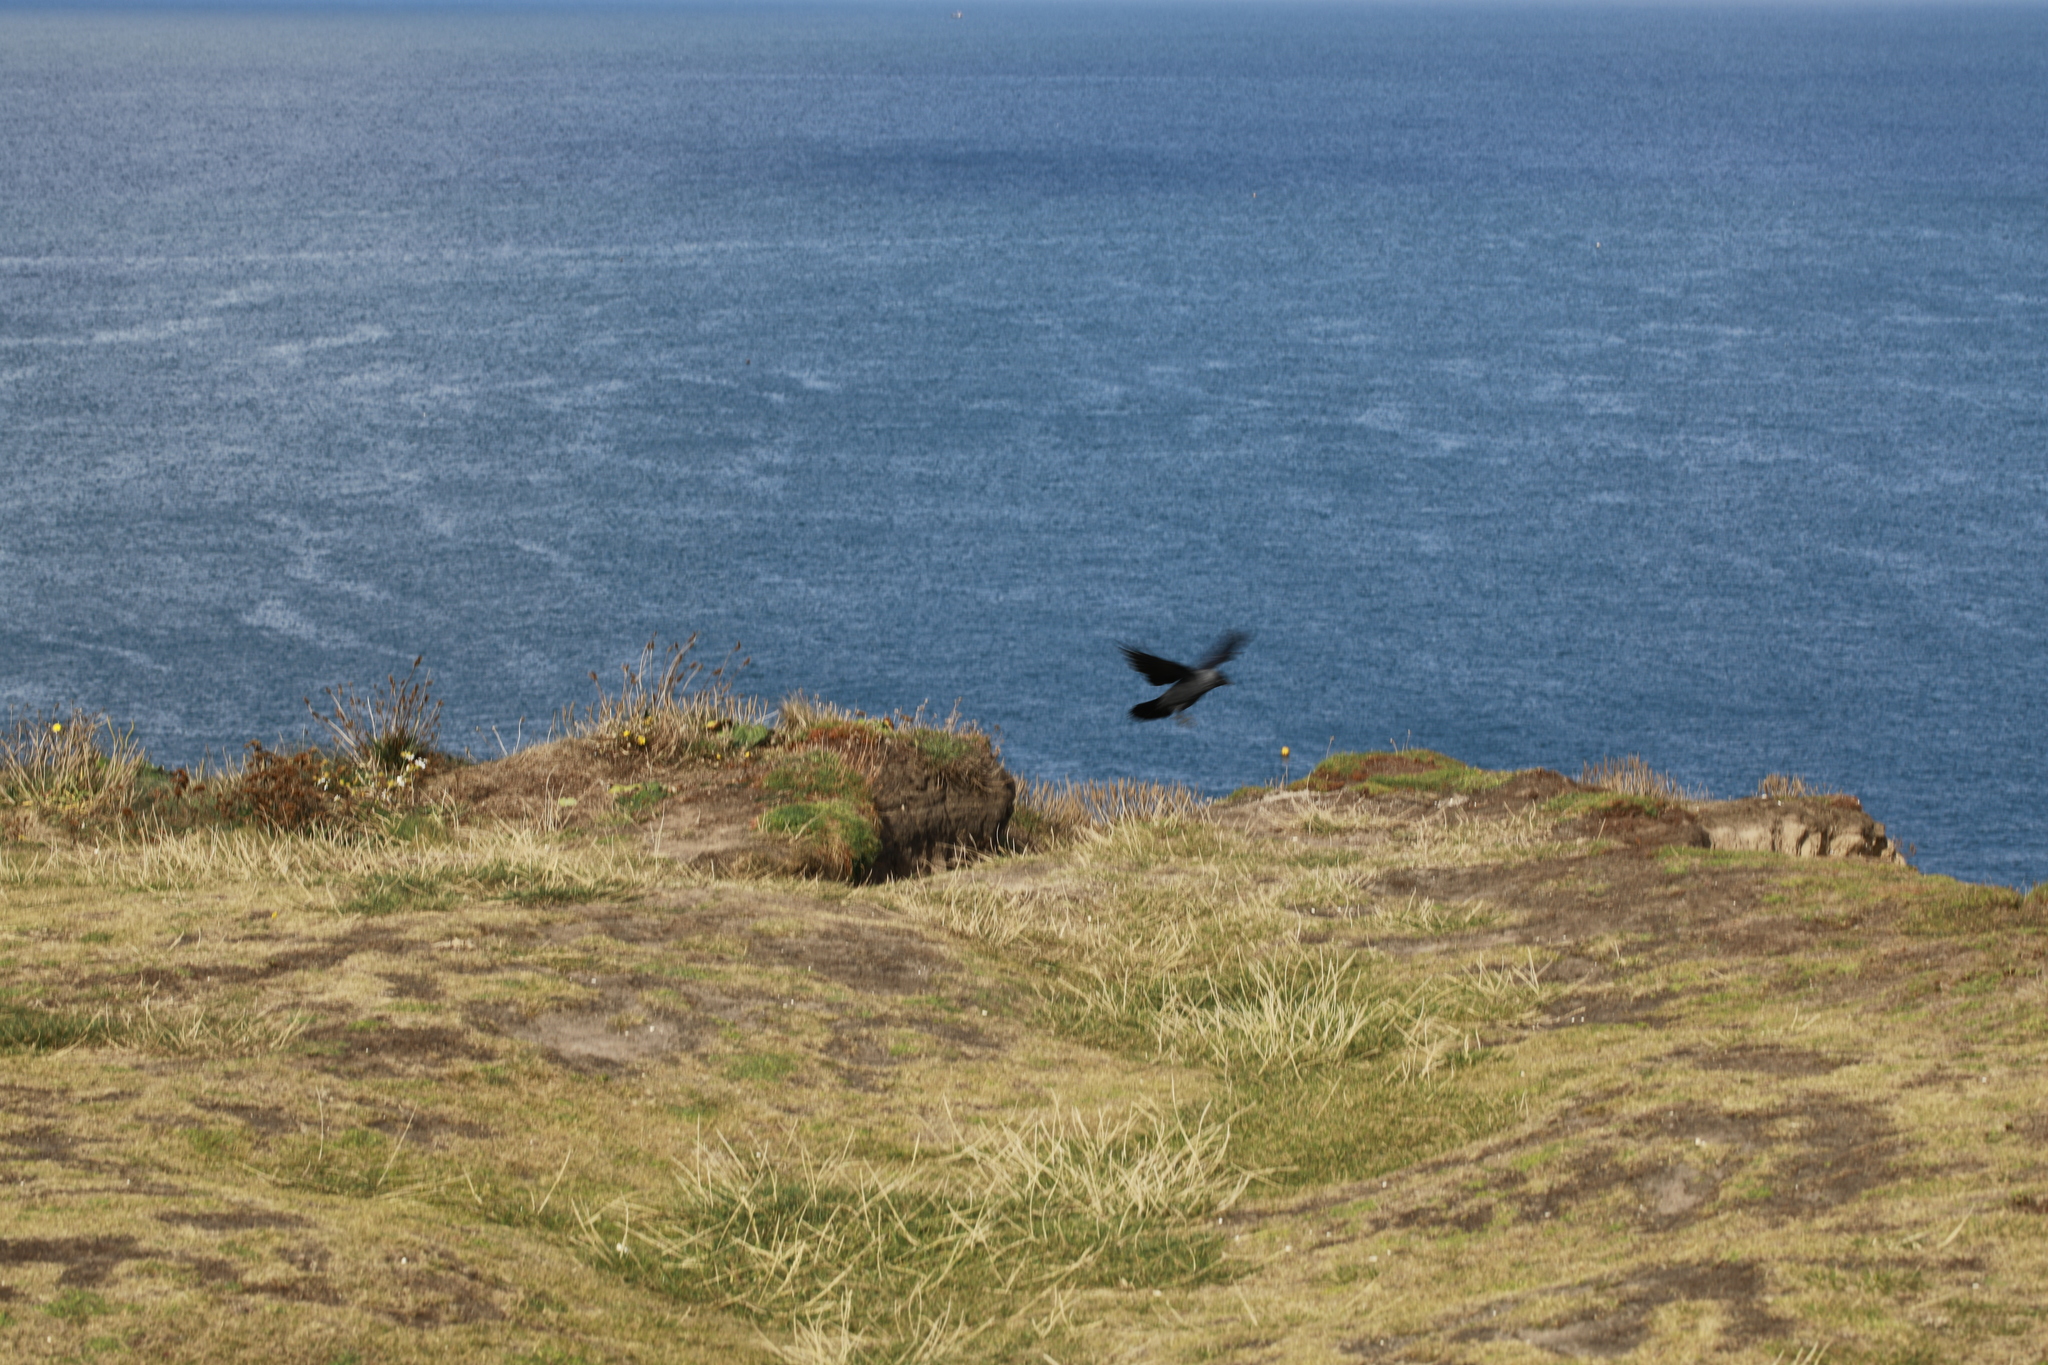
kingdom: Animalia
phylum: Chordata
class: Aves
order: Passeriformes
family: Corvidae
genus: Coloeus
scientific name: Coloeus monedula
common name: Western jackdaw
